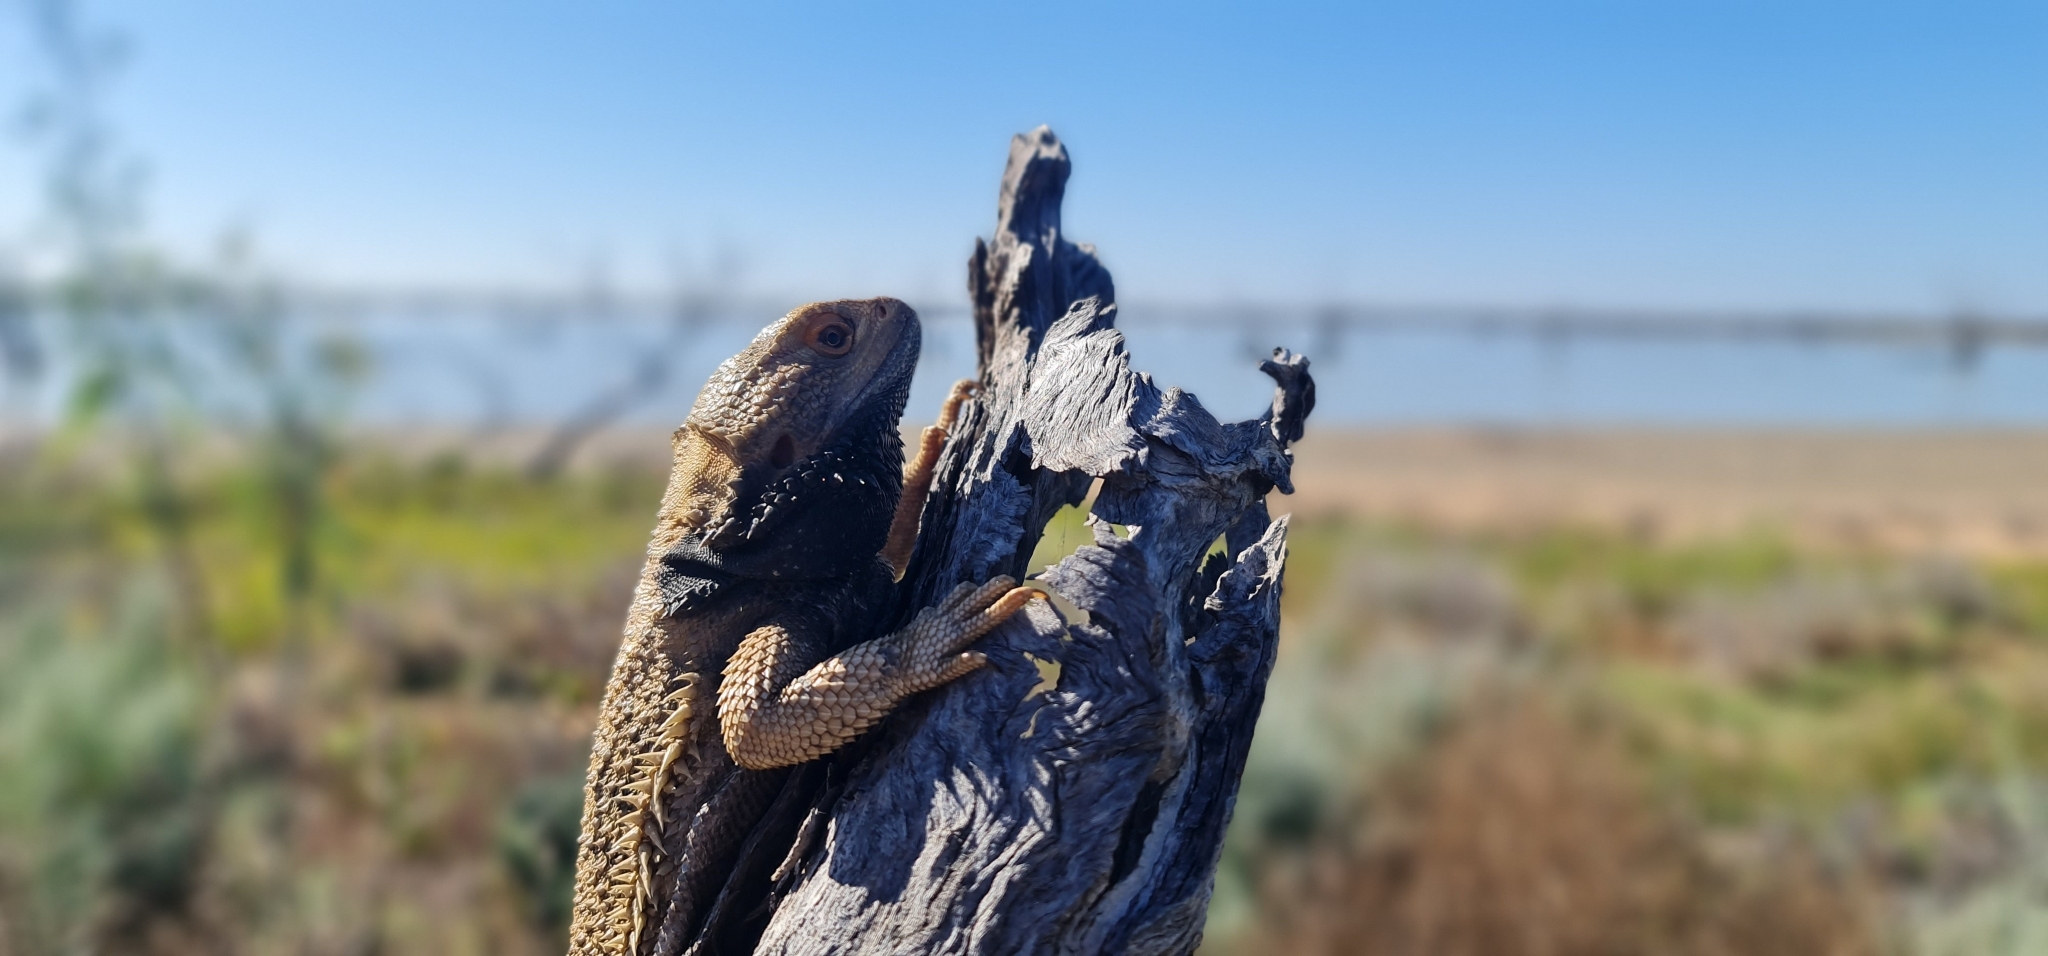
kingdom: Animalia
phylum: Chordata
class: Squamata
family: Agamidae
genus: Pogona
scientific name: Pogona vitticeps
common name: Central bearded dragon
